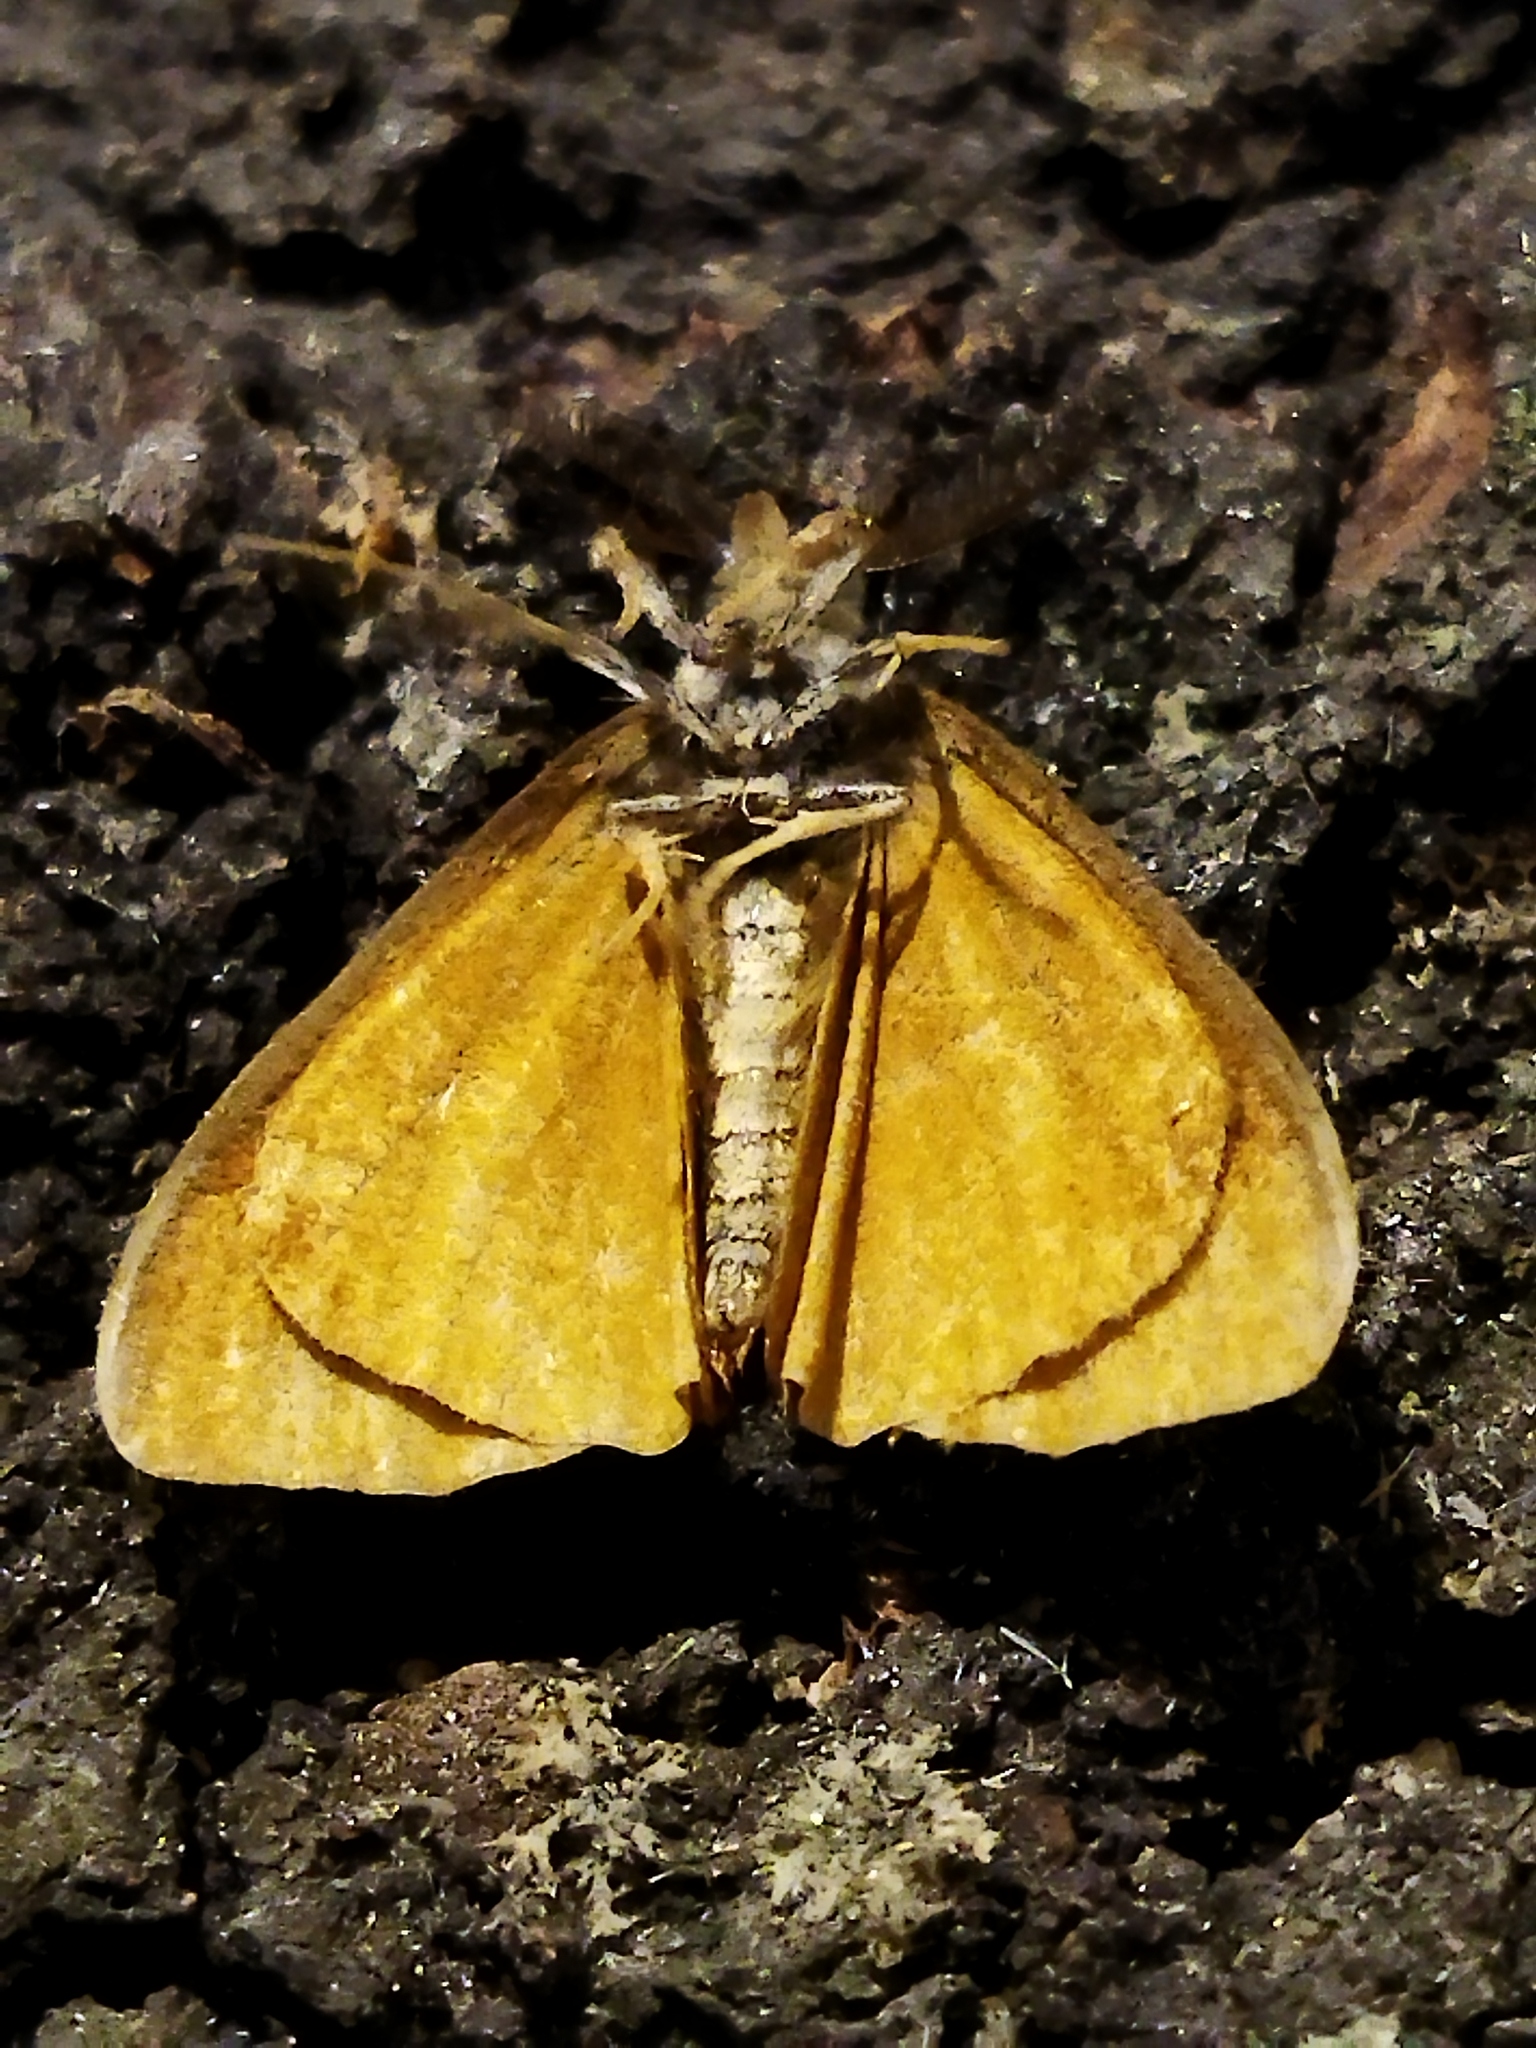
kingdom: Animalia
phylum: Arthropoda
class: Insecta
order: Lepidoptera
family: Erebidae
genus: Orgyia
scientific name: Orgyia antiqua
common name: Vapourer
